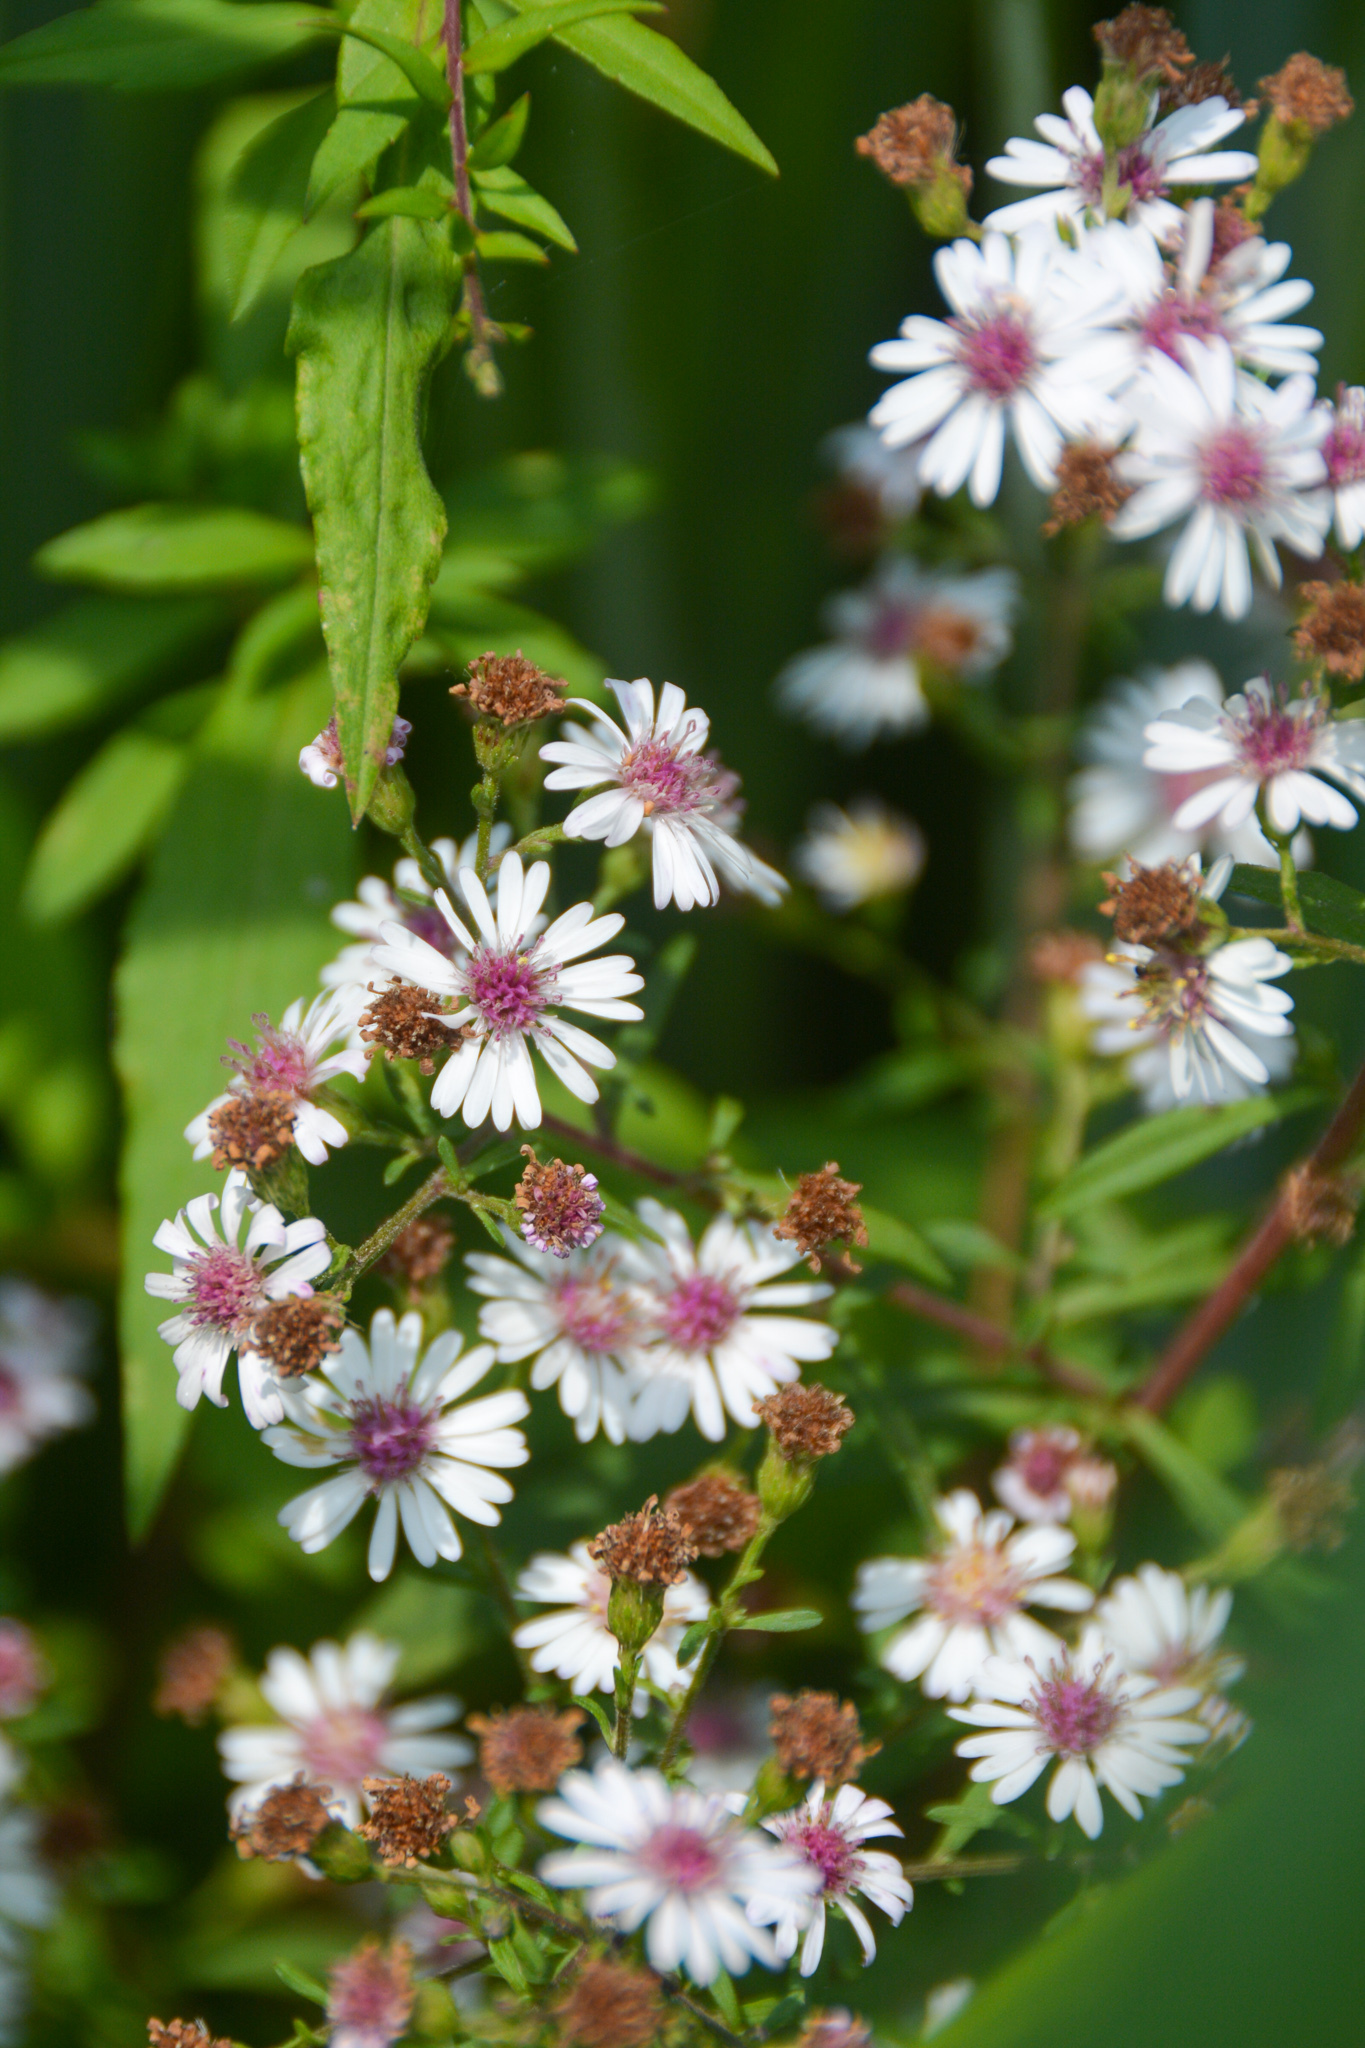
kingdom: Plantae
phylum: Tracheophyta
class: Magnoliopsida
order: Asterales
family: Asteraceae
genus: Symphyotrichum
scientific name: Symphyotrichum lateriflorum
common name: Calico aster
